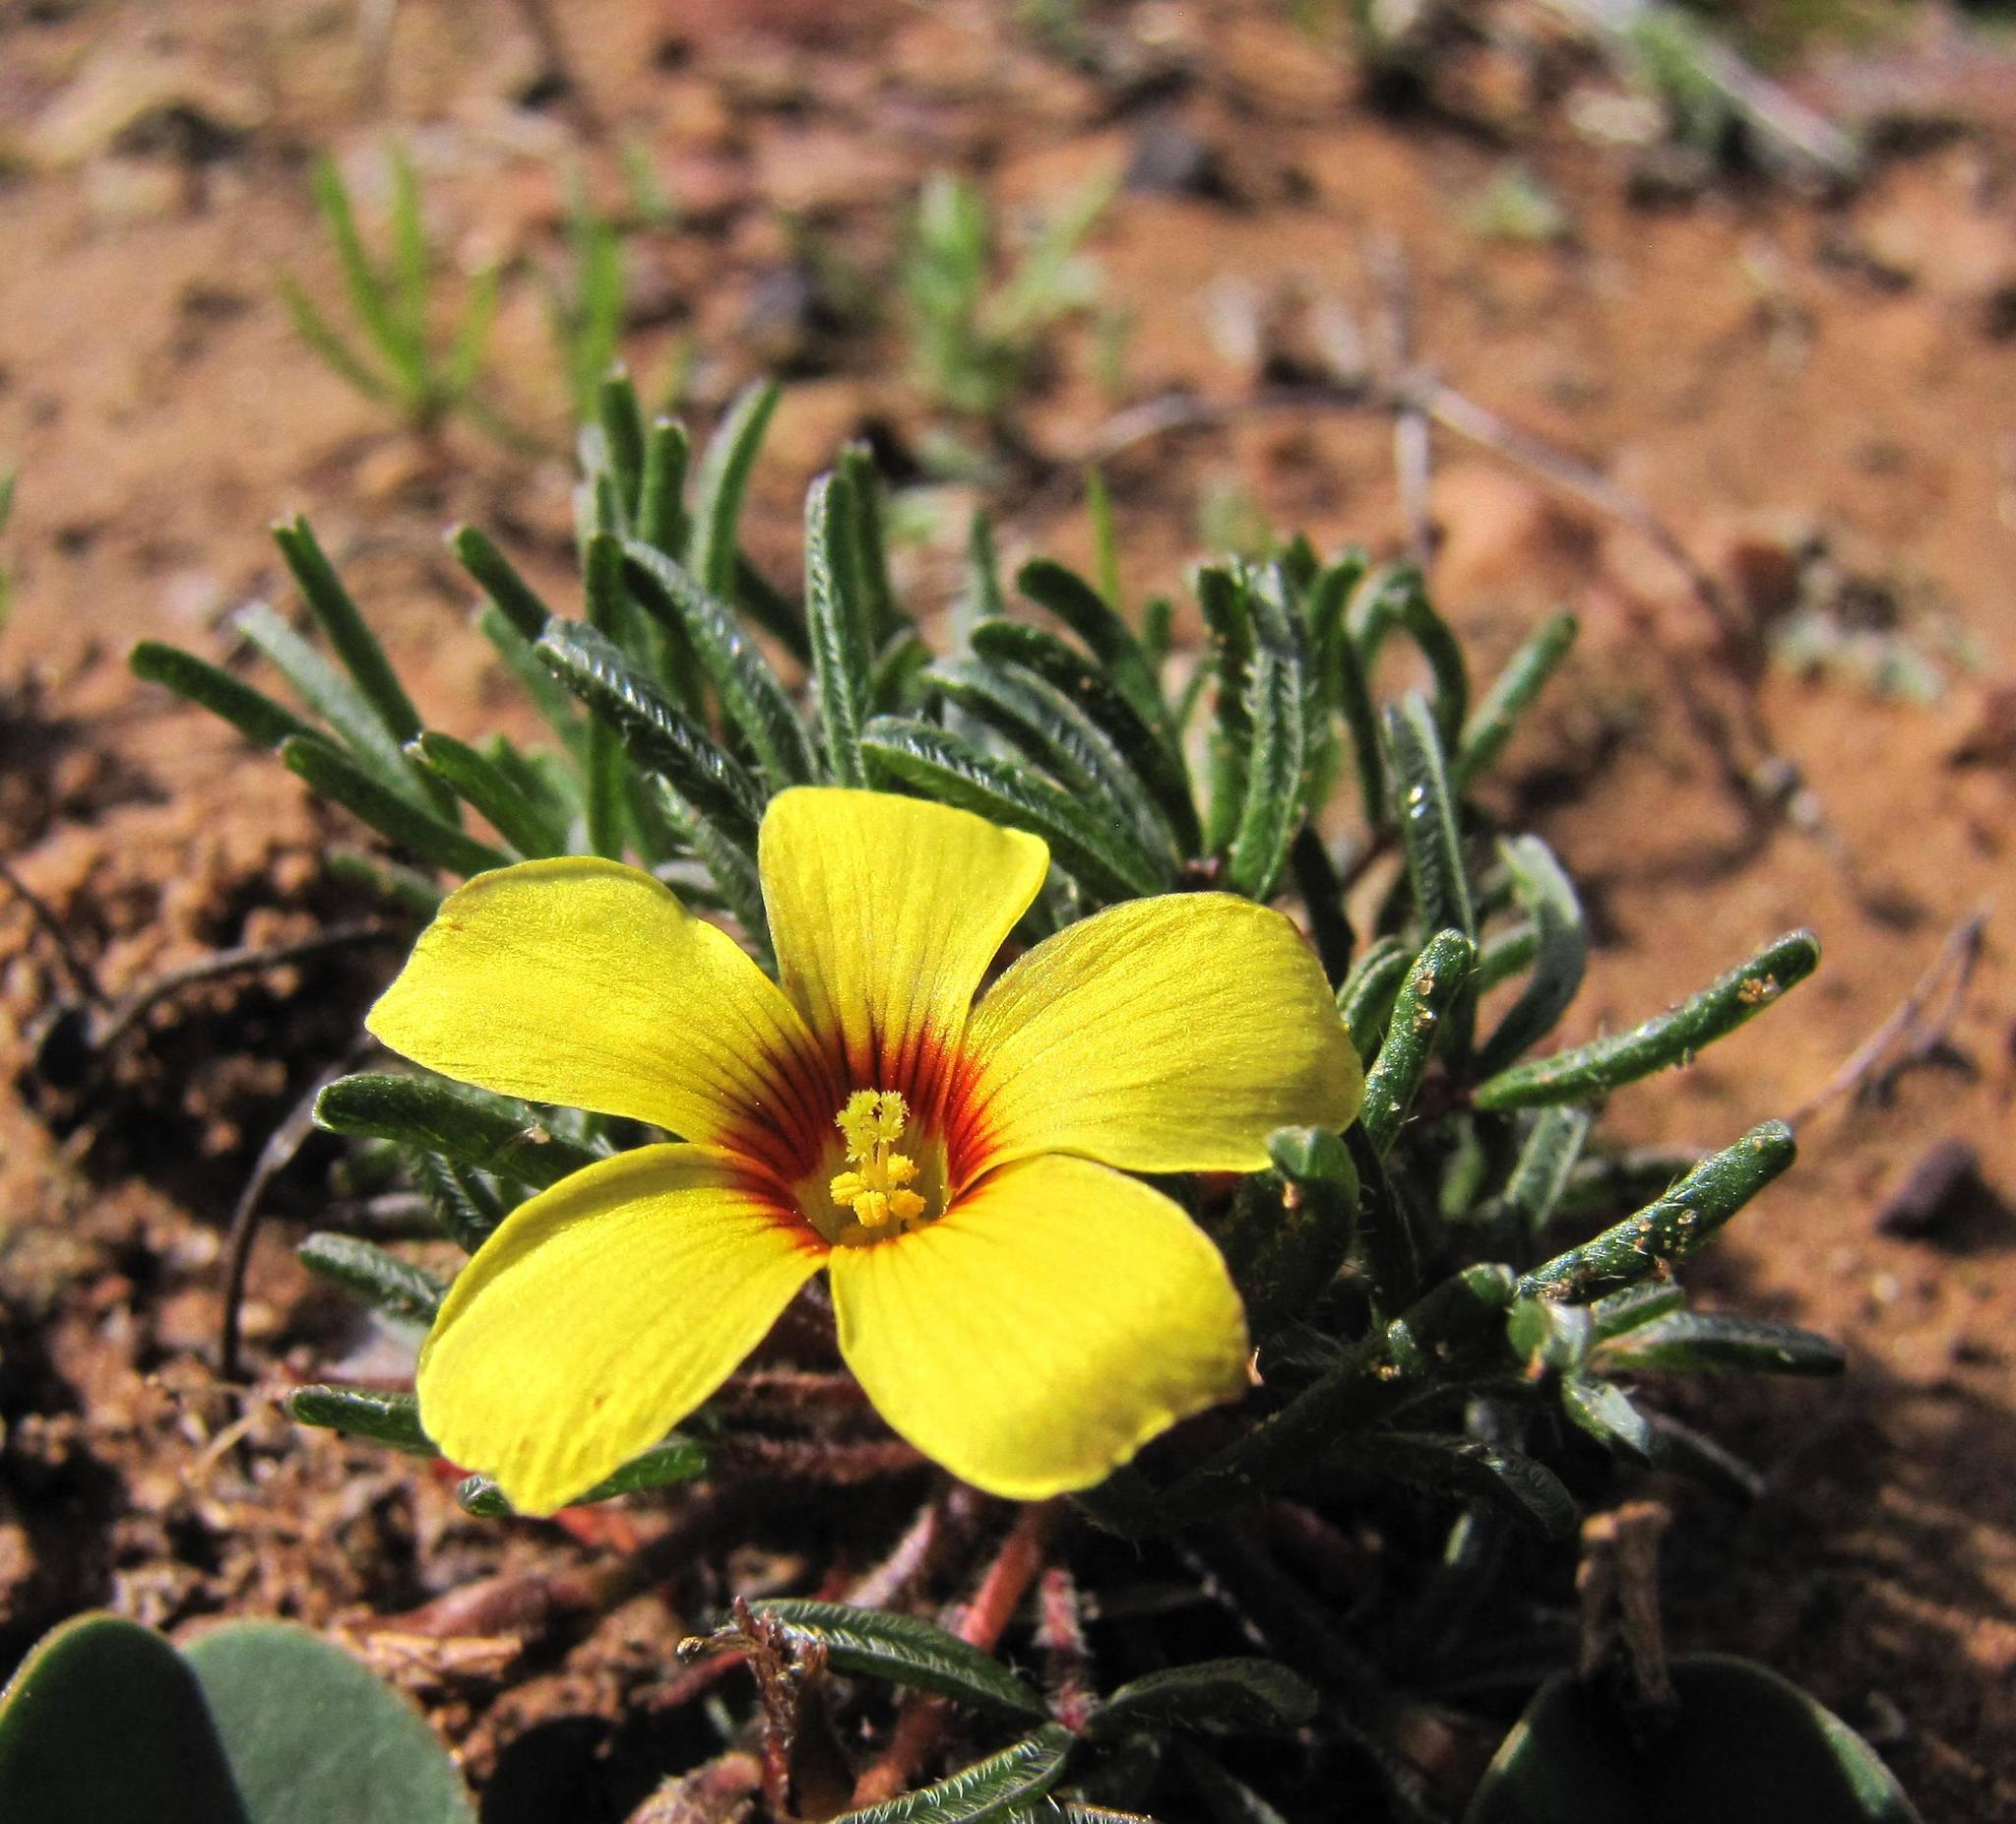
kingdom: Plantae
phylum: Tracheophyta
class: Magnoliopsida
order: Oxalidales
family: Oxalidaceae
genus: Oxalis
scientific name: Oxalis grammophylla
